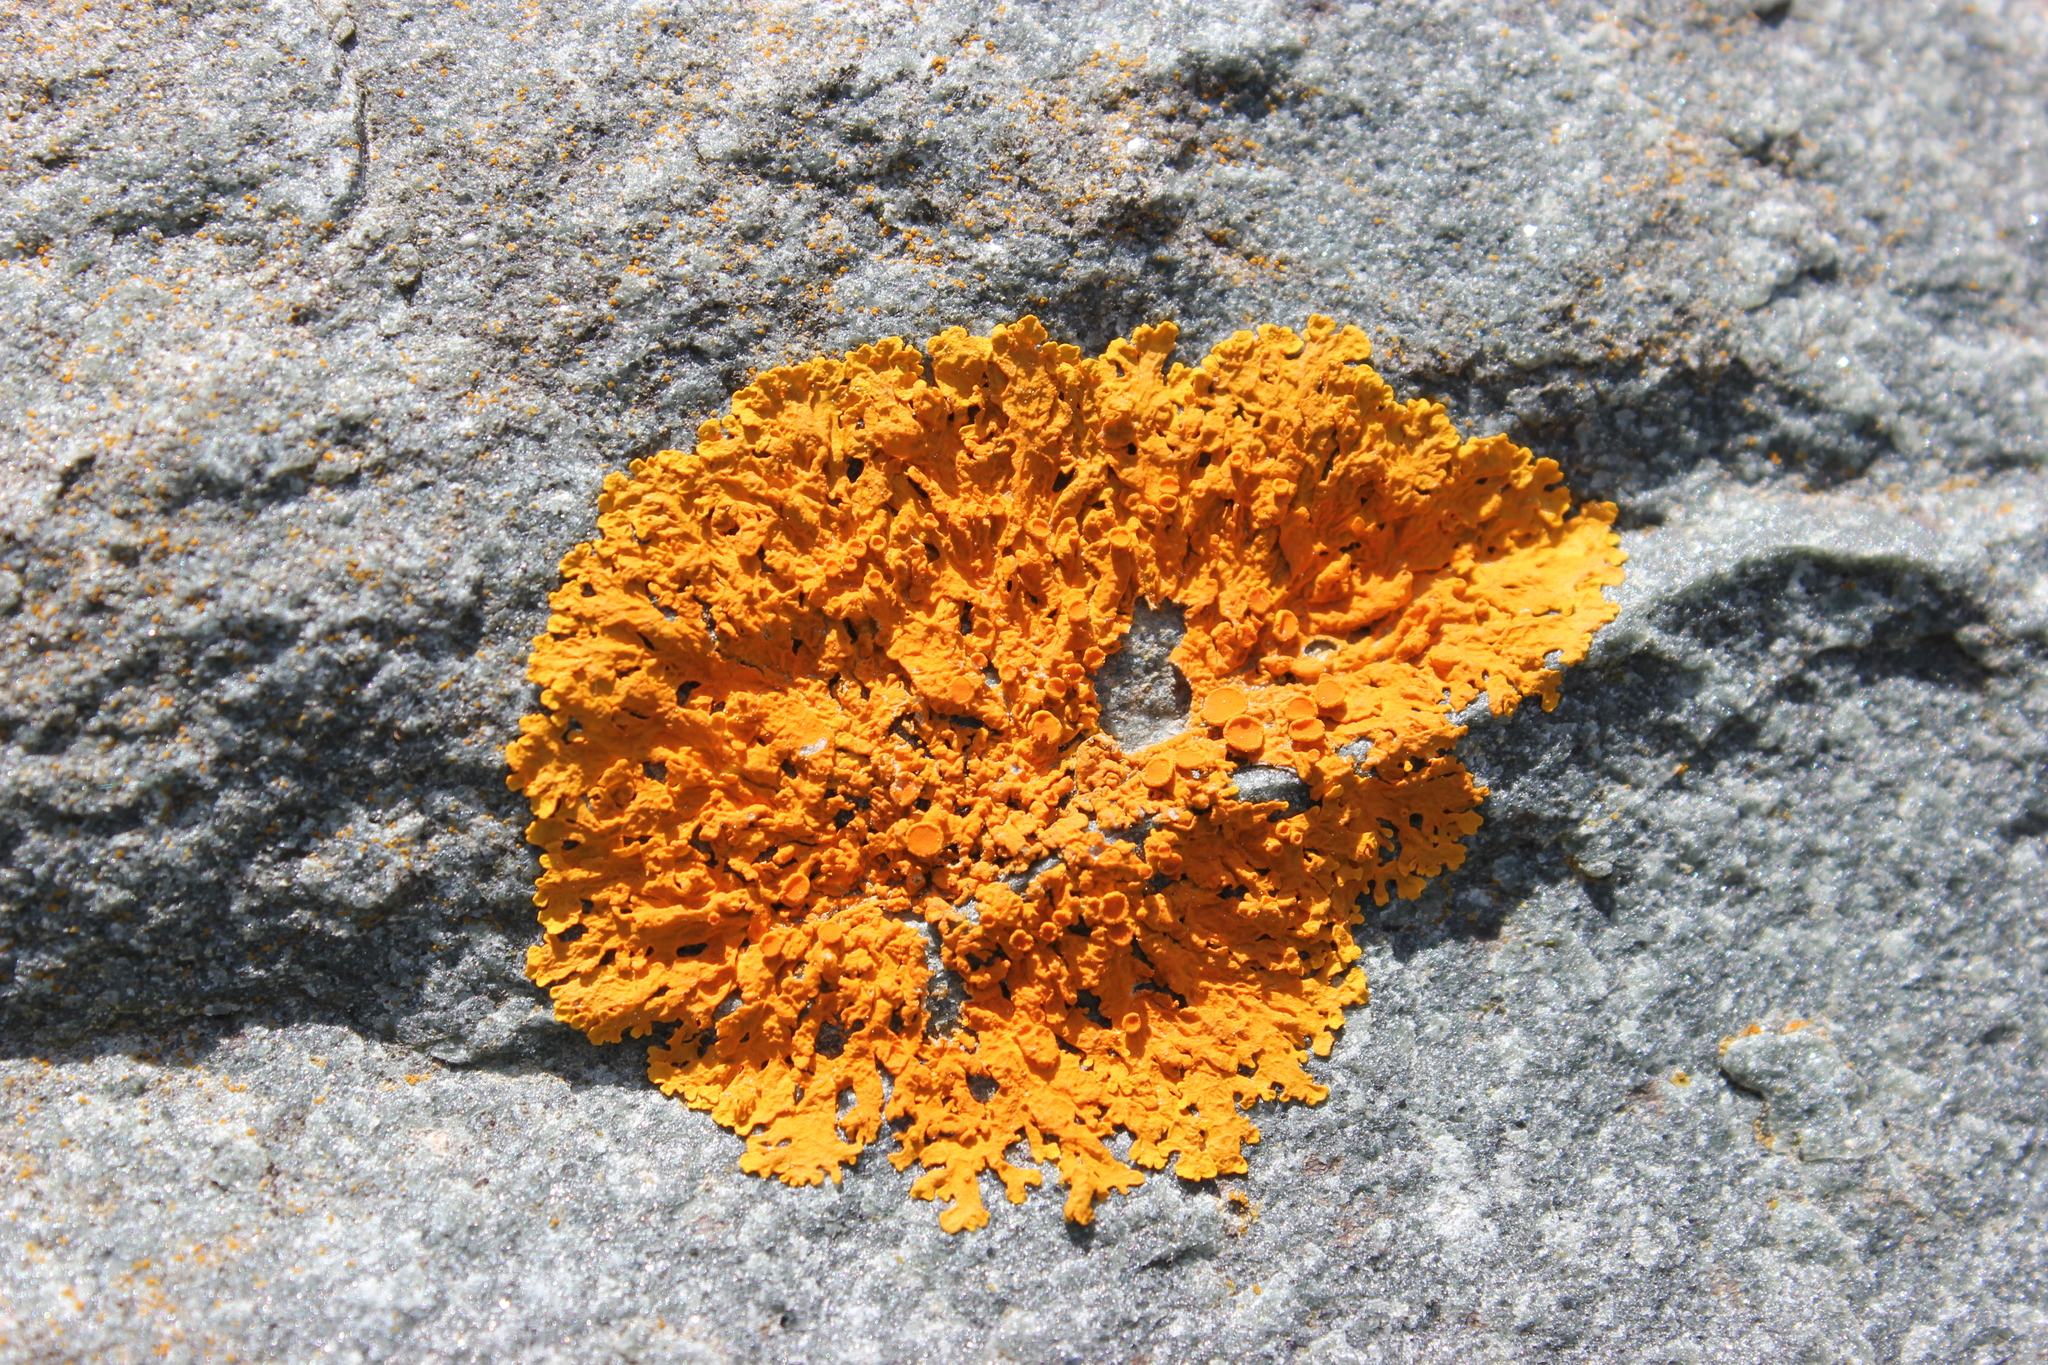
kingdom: Fungi
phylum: Ascomycota
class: Lecanoromycetes
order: Teloschistales
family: Teloschistaceae
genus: Xanthoria
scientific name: Xanthoria elegans
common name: Elegant sunburst lichen
